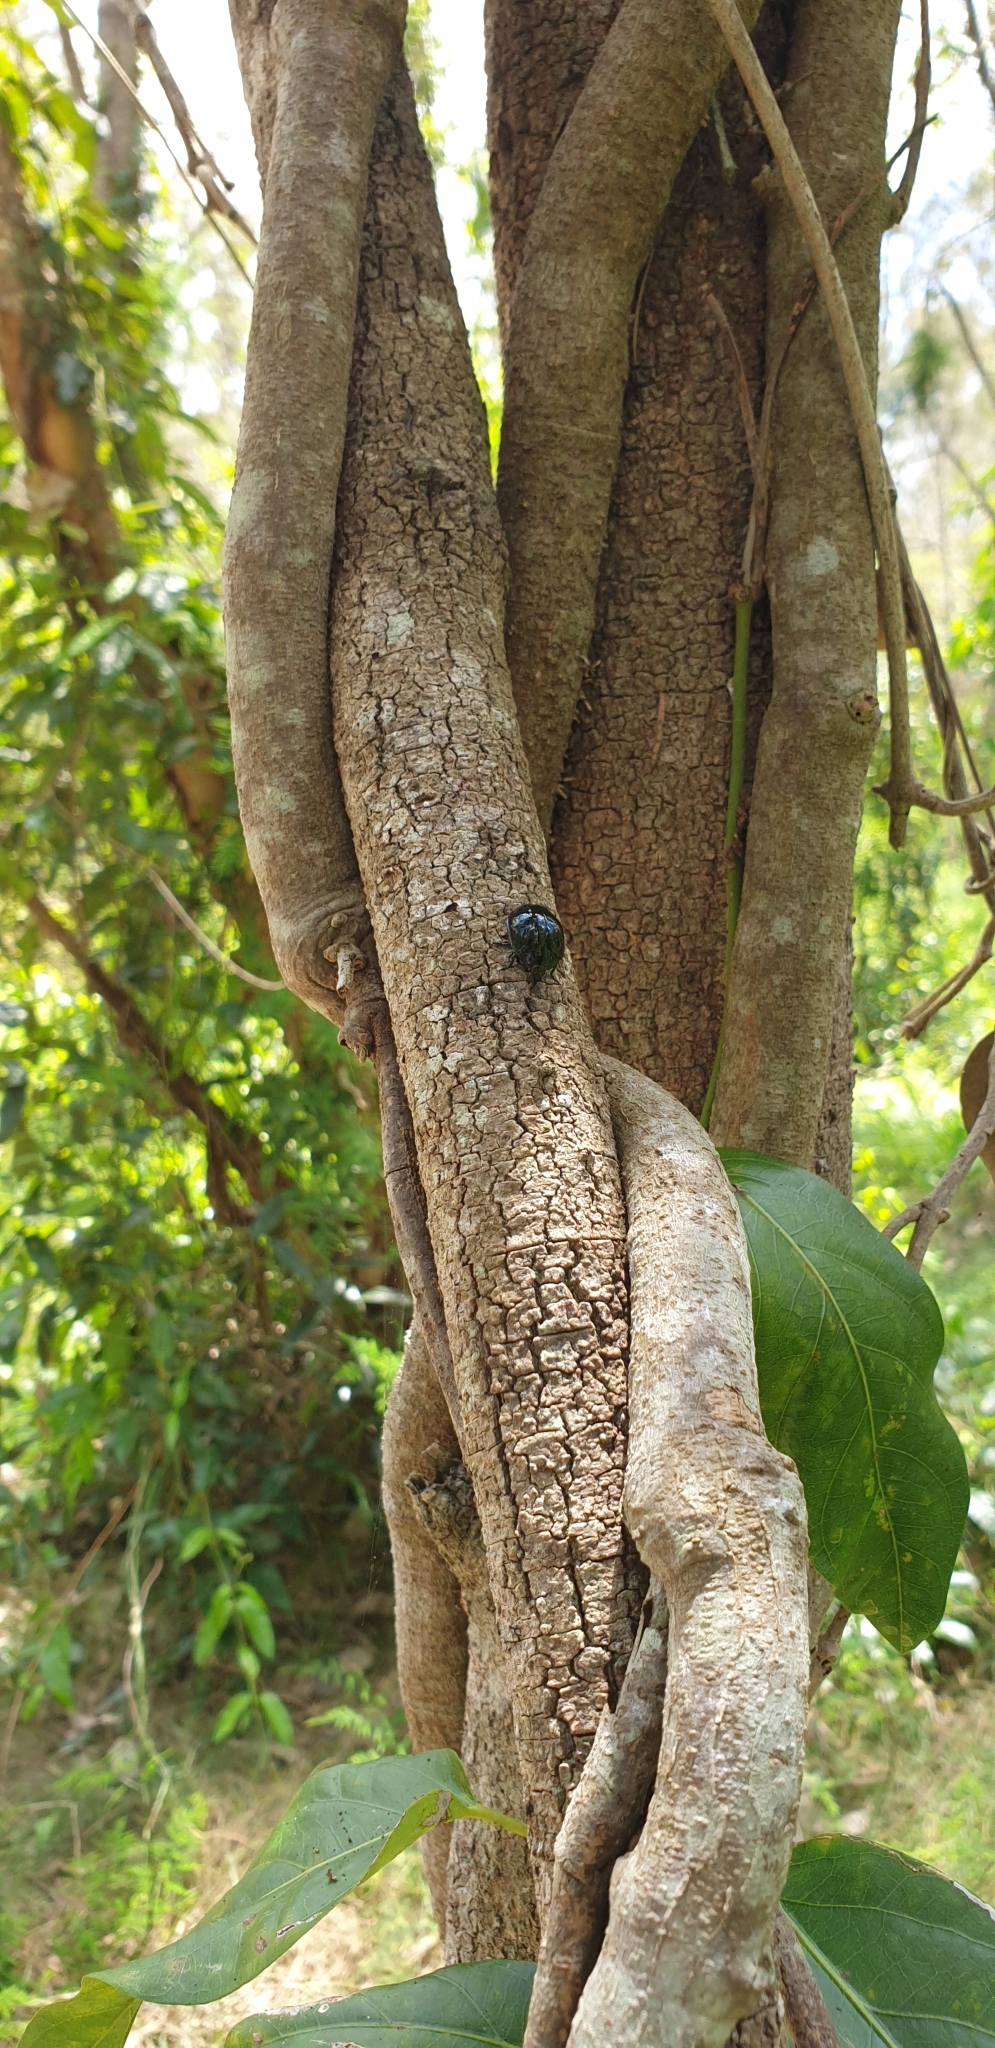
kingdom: Animalia
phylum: Arthropoda
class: Insecta
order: Coleoptera
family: Tenebrionidae
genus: Hemicyclus
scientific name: Hemicyclus
